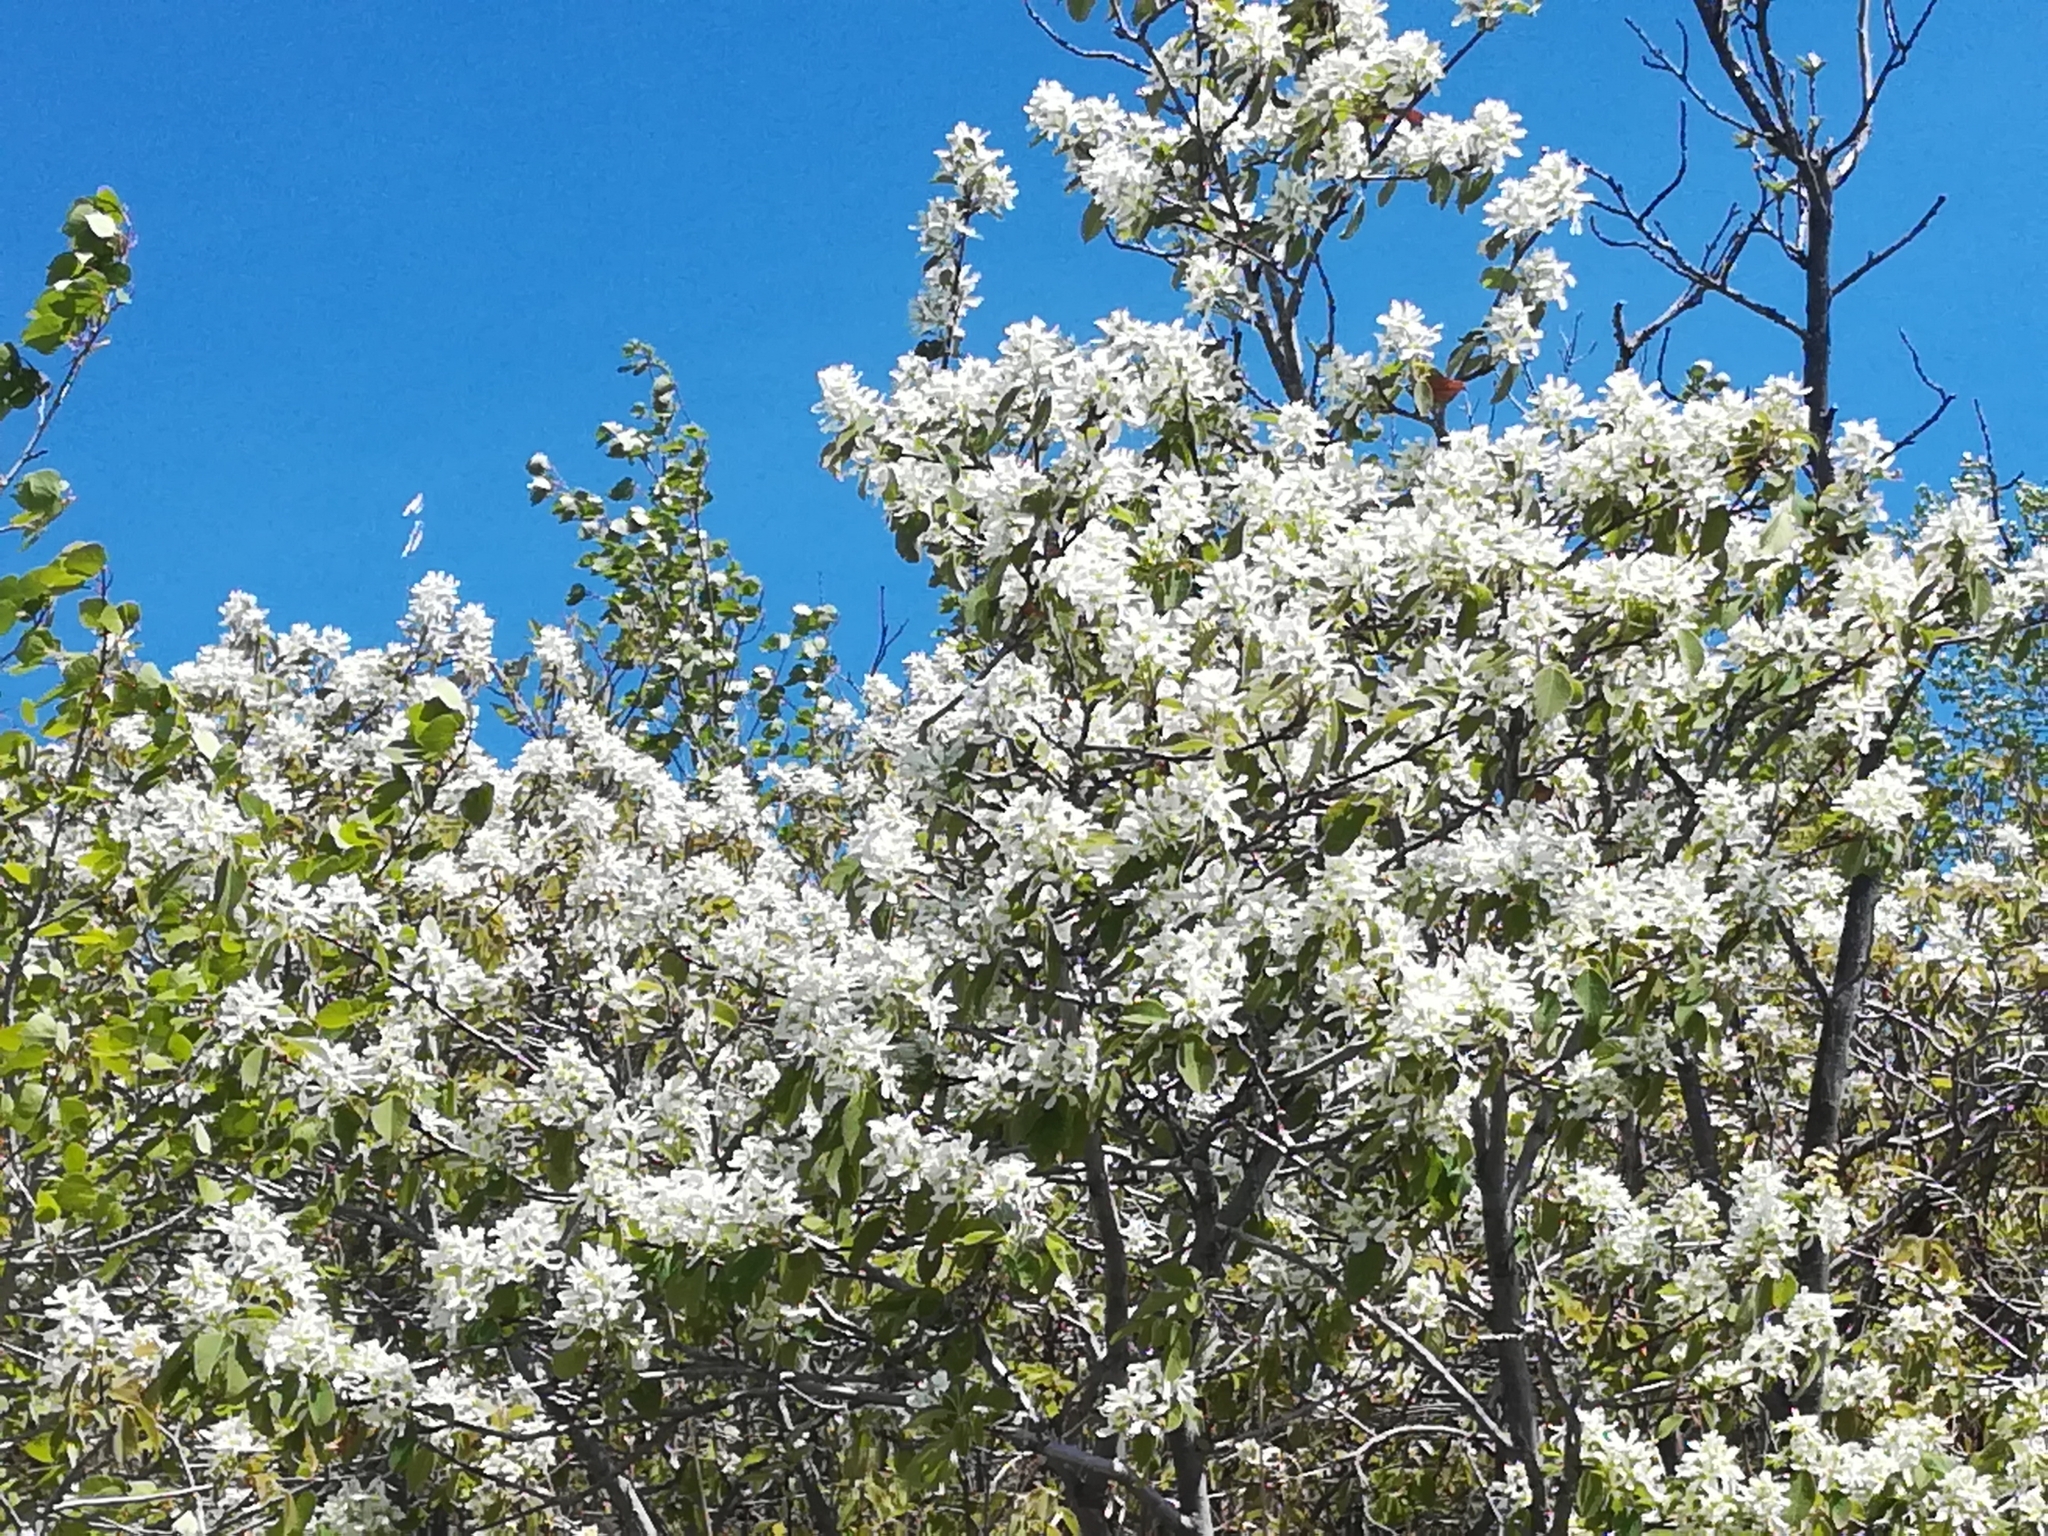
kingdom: Plantae
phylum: Tracheophyta
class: Magnoliopsida
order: Rosales
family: Rosaceae
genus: Amelanchier
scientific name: Amelanchier alnifolia
